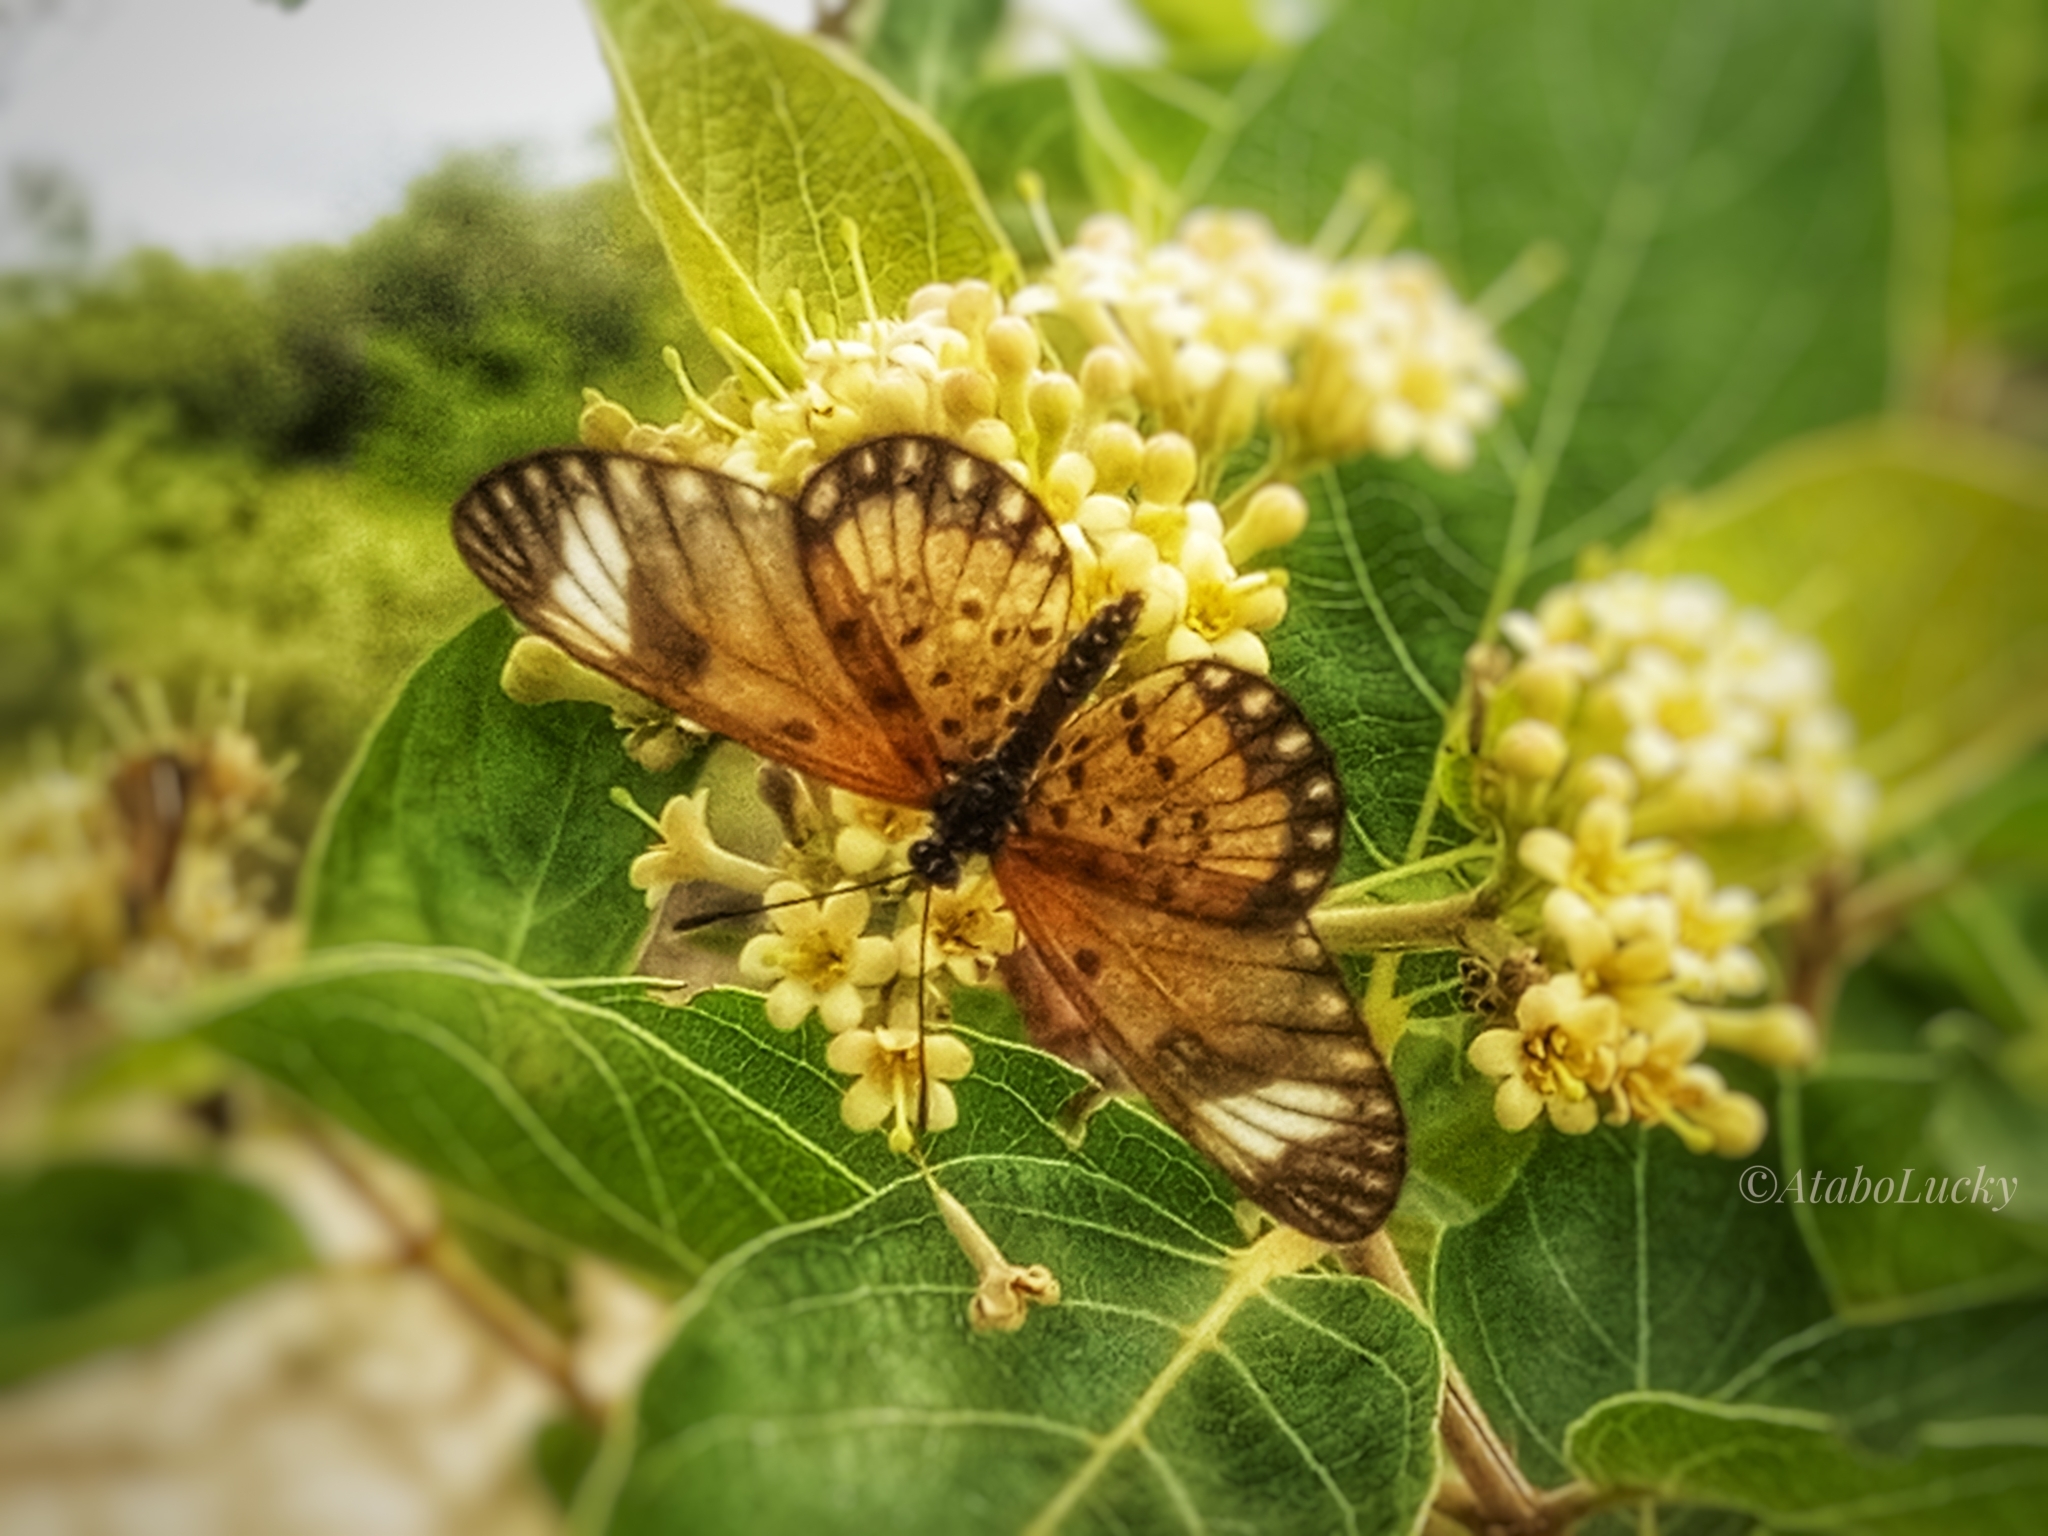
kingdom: Animalia
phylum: Arthropoda
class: Insecta
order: Lepidoptera
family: Nymphalidae
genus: Acraea
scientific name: Acraea Telchinia serena
